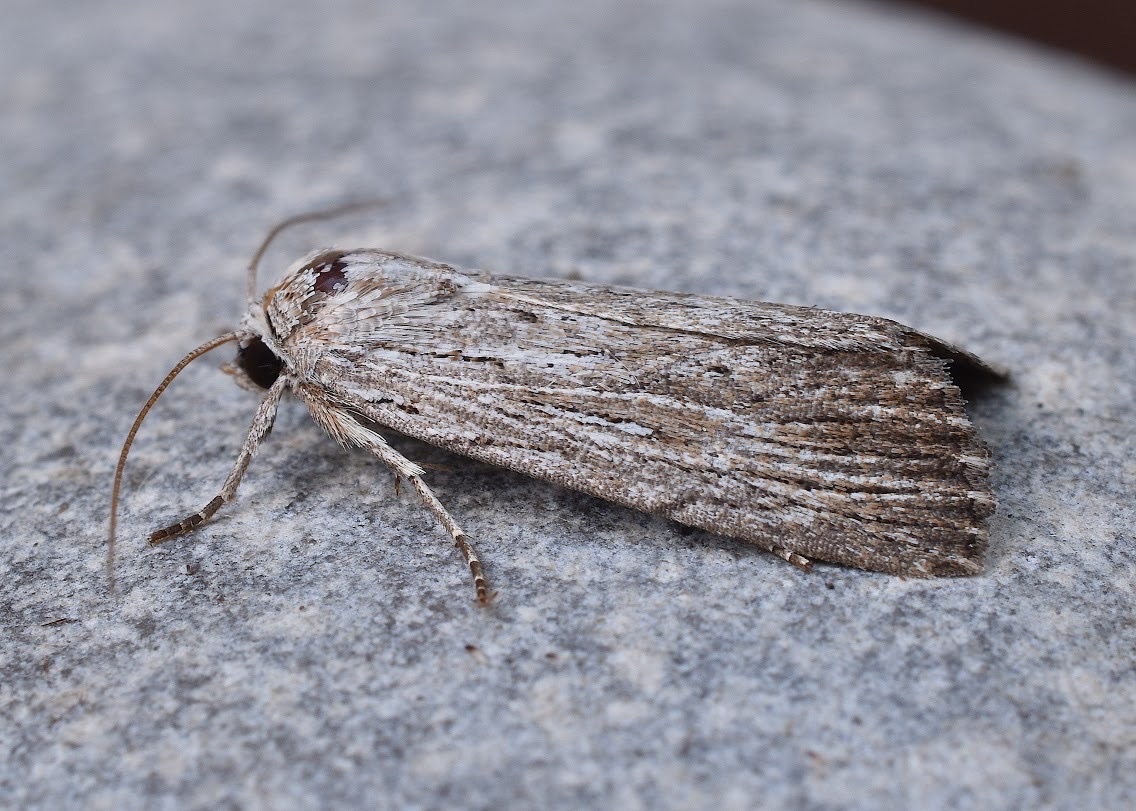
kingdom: Animalia
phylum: Arthropoda
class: Insecta
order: Lepidoptera
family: Noctuidae
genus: Catabena
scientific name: Catabena lineolata
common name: Fine-lined sallow
